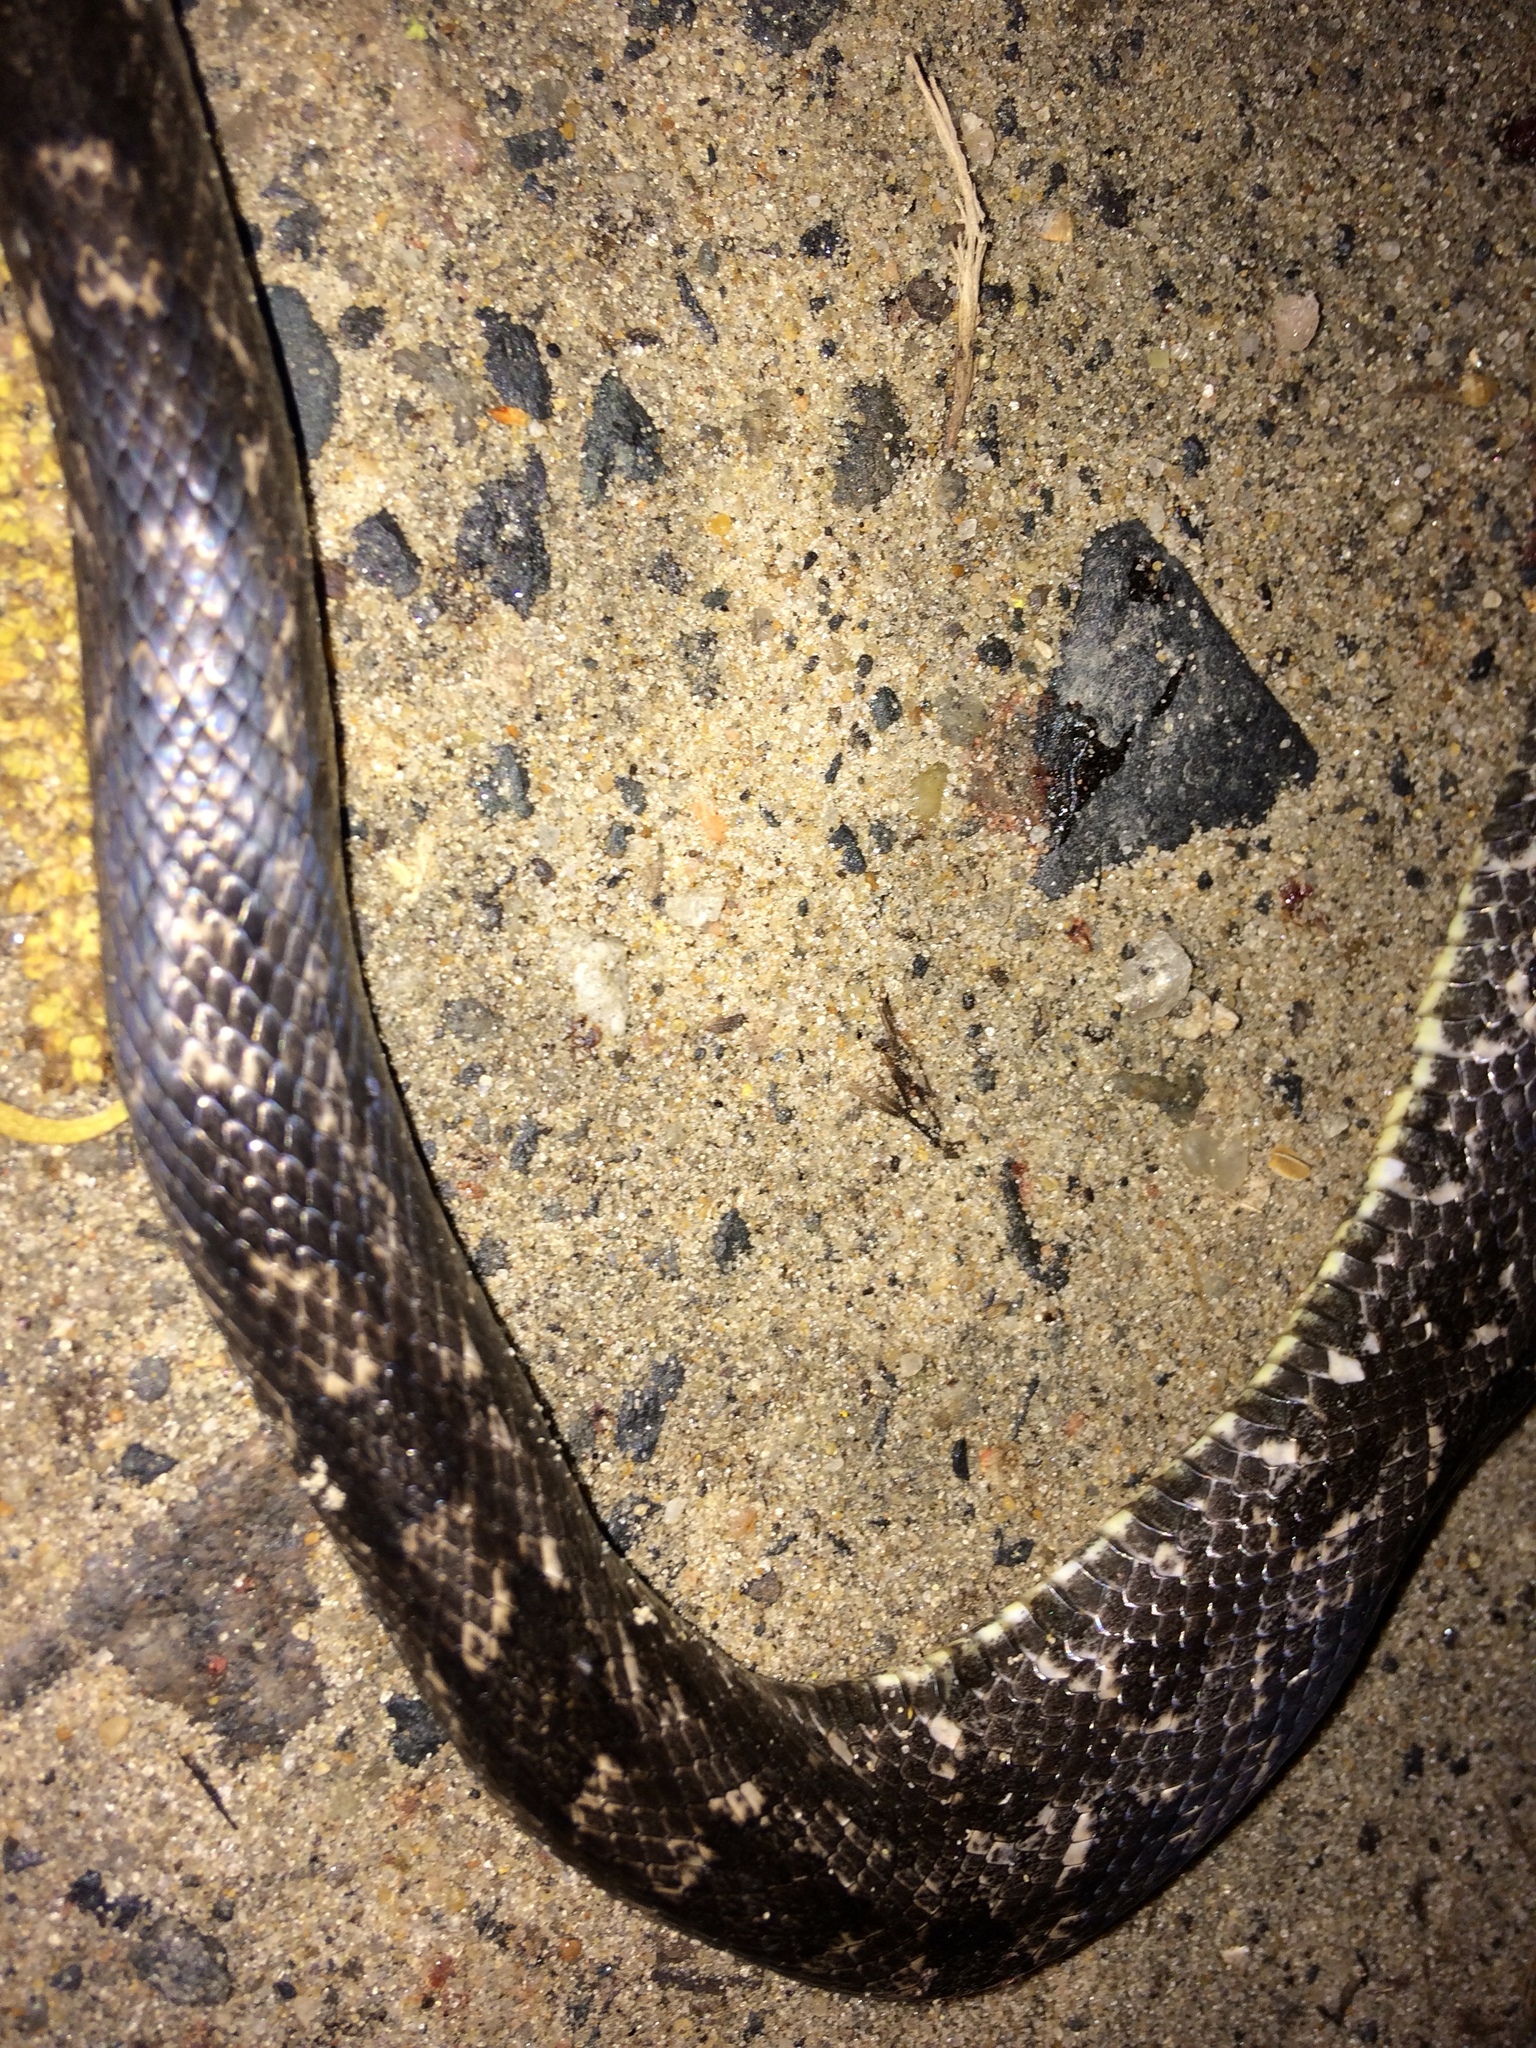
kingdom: Animalia
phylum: Chordata
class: Squamata
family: Colubridae
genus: Pantherophis
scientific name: Pantherophis alleghaniensis
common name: Eastern rat snake
